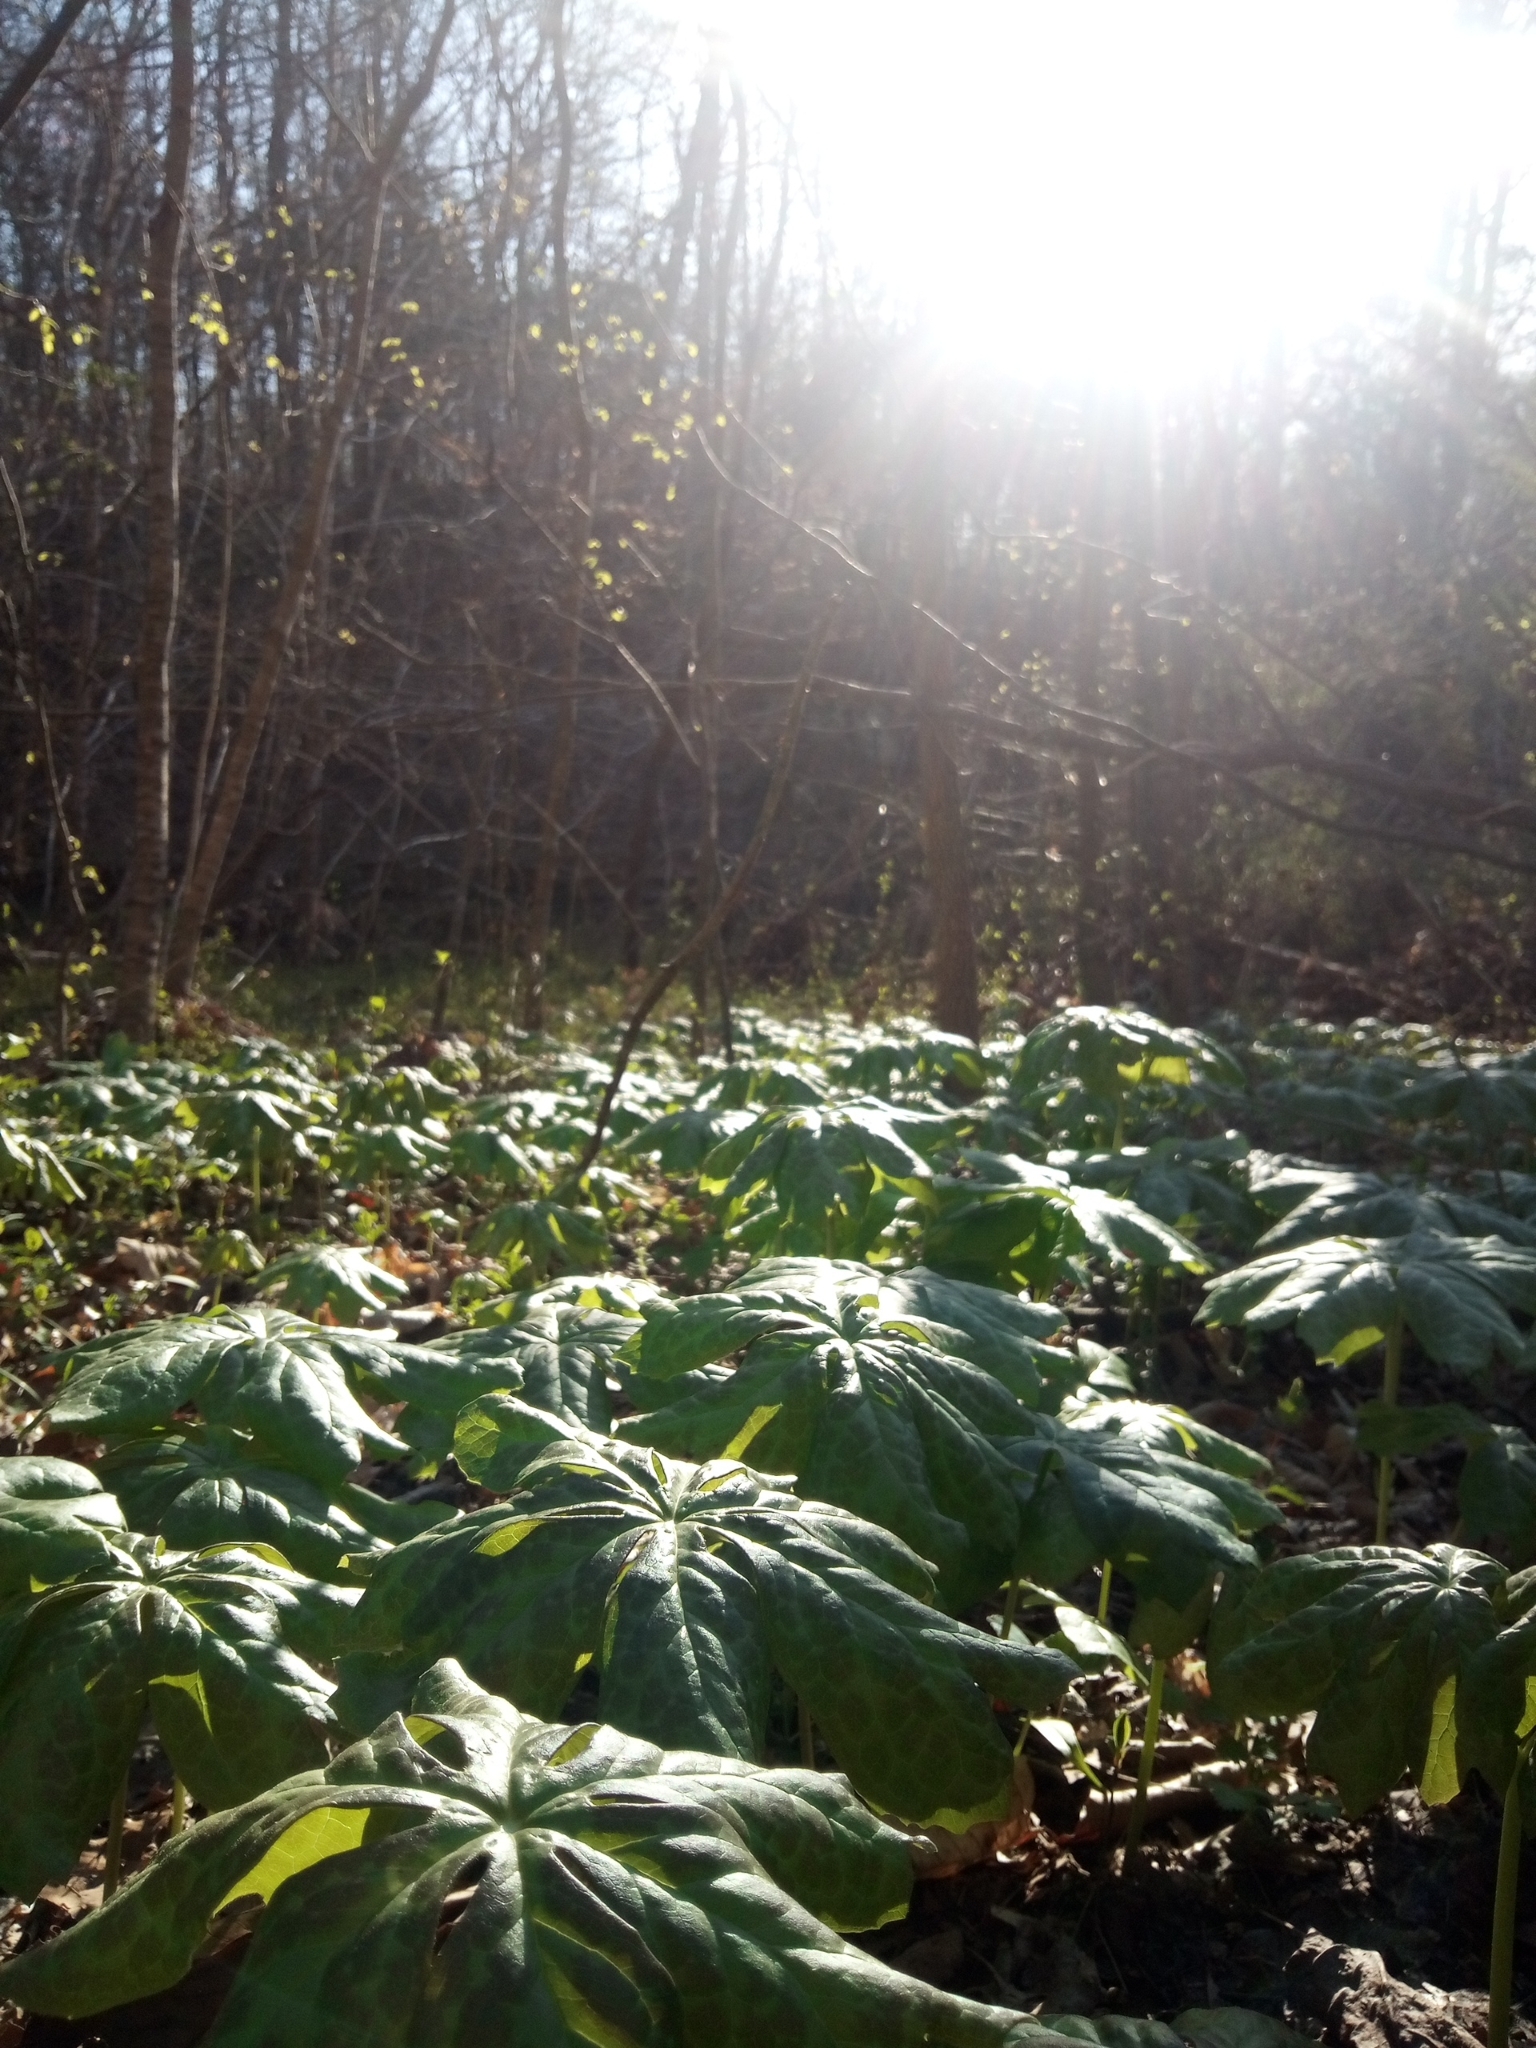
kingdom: Plantae
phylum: Tracheophyta
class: Magnoliopsida
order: Ranunculales
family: Berberidaceae
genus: Podophyllum
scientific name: Podophyllum peltatum
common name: Wild mandrake
